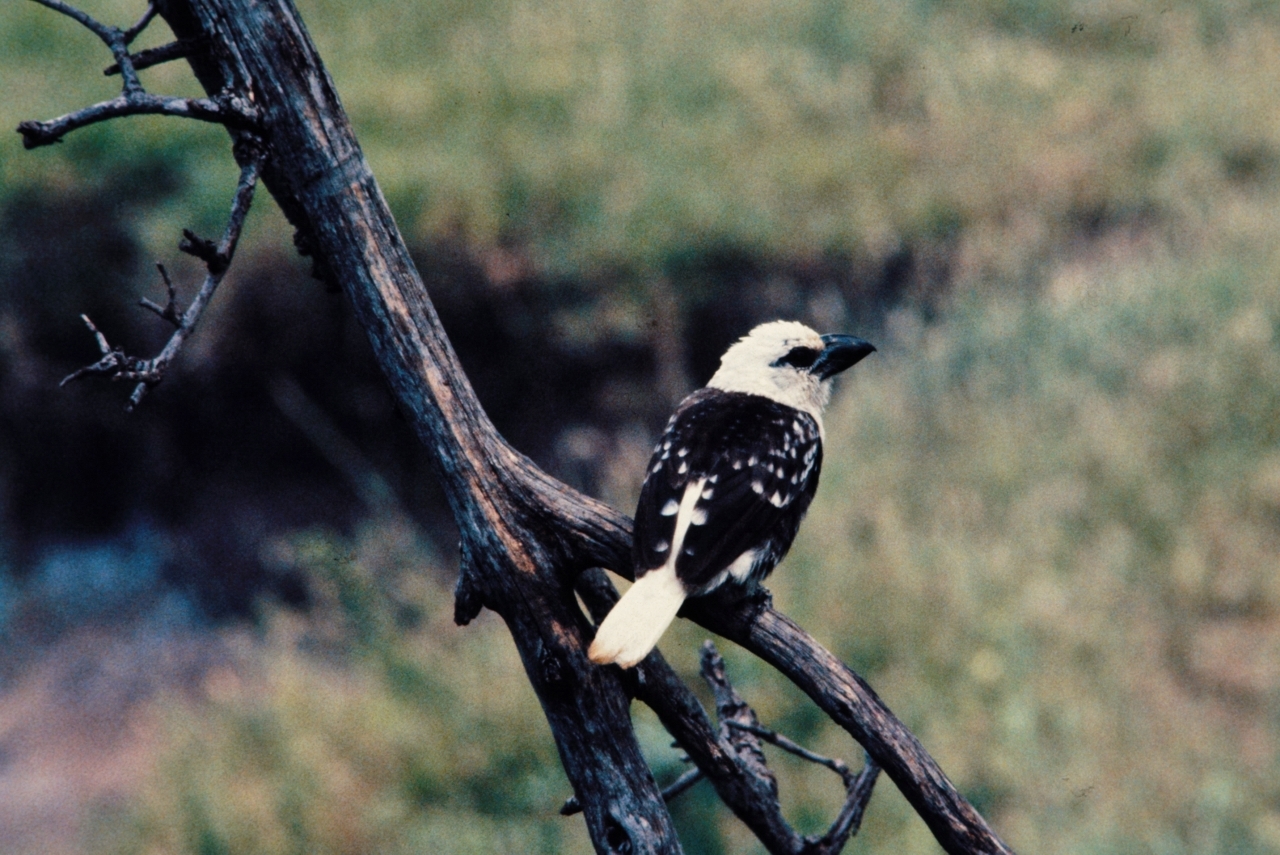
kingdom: Animalia
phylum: Chordata
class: Aves
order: Piciformes
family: Lybiidae
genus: Lybius
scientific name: Lybius leucocephalus
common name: White-headed barbet
